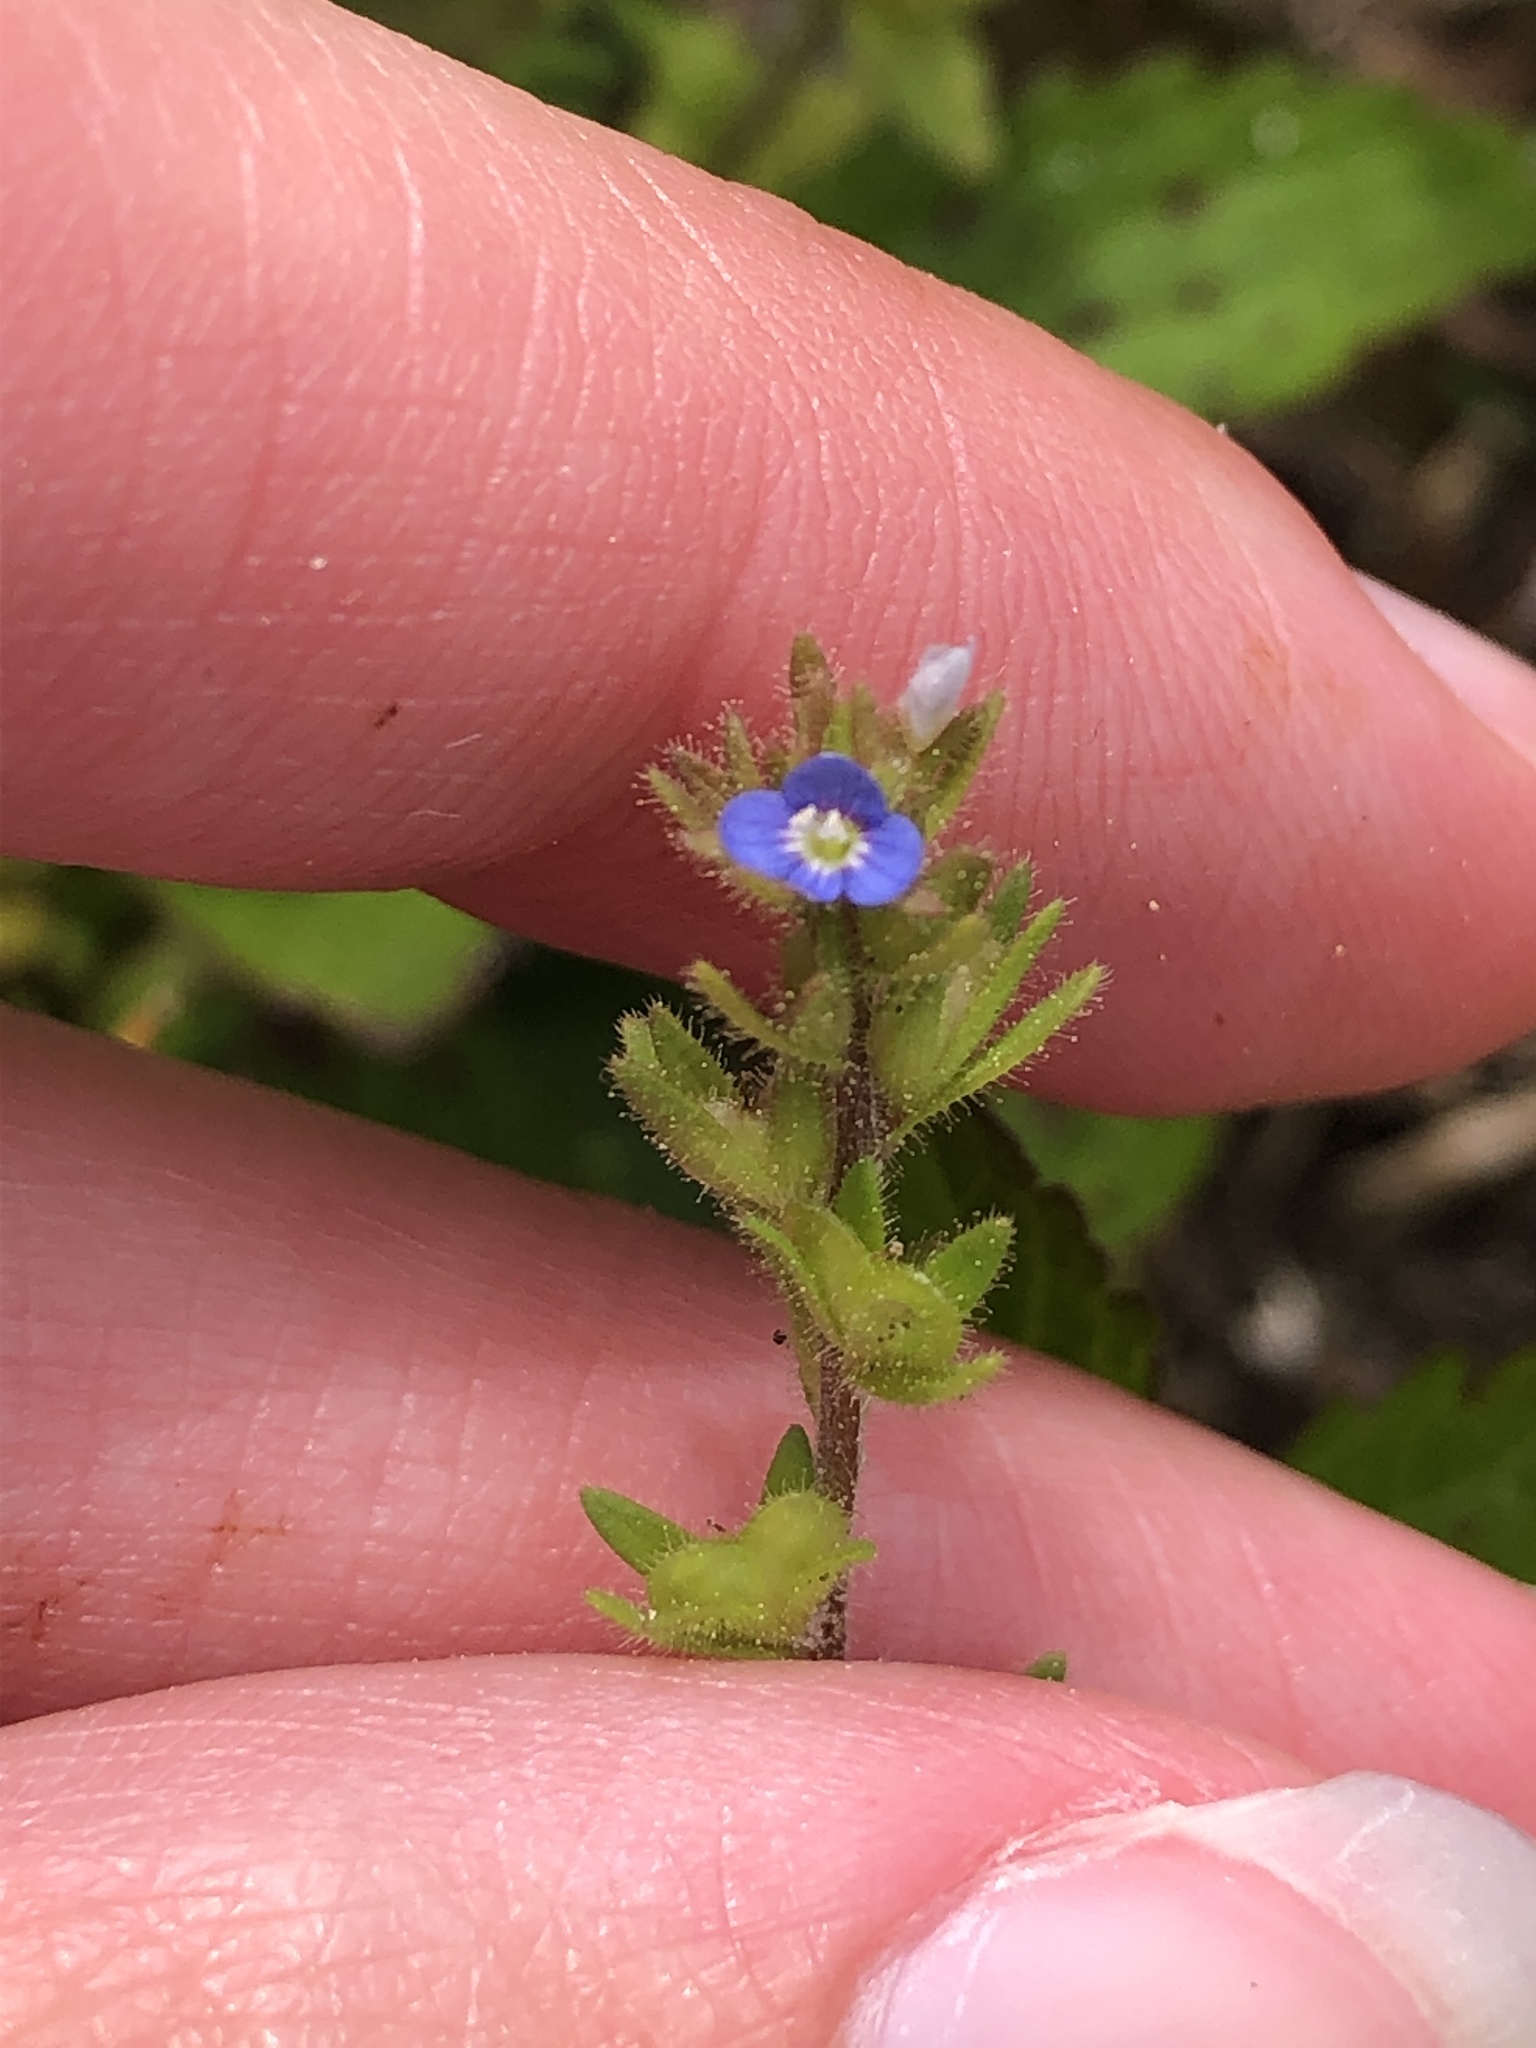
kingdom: Plantae
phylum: Tracheophyta
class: Magnoliopsida
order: Lamiales
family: Plantaginaceae
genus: Veronica
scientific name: Veronica arvensis
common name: Corn speedwell
